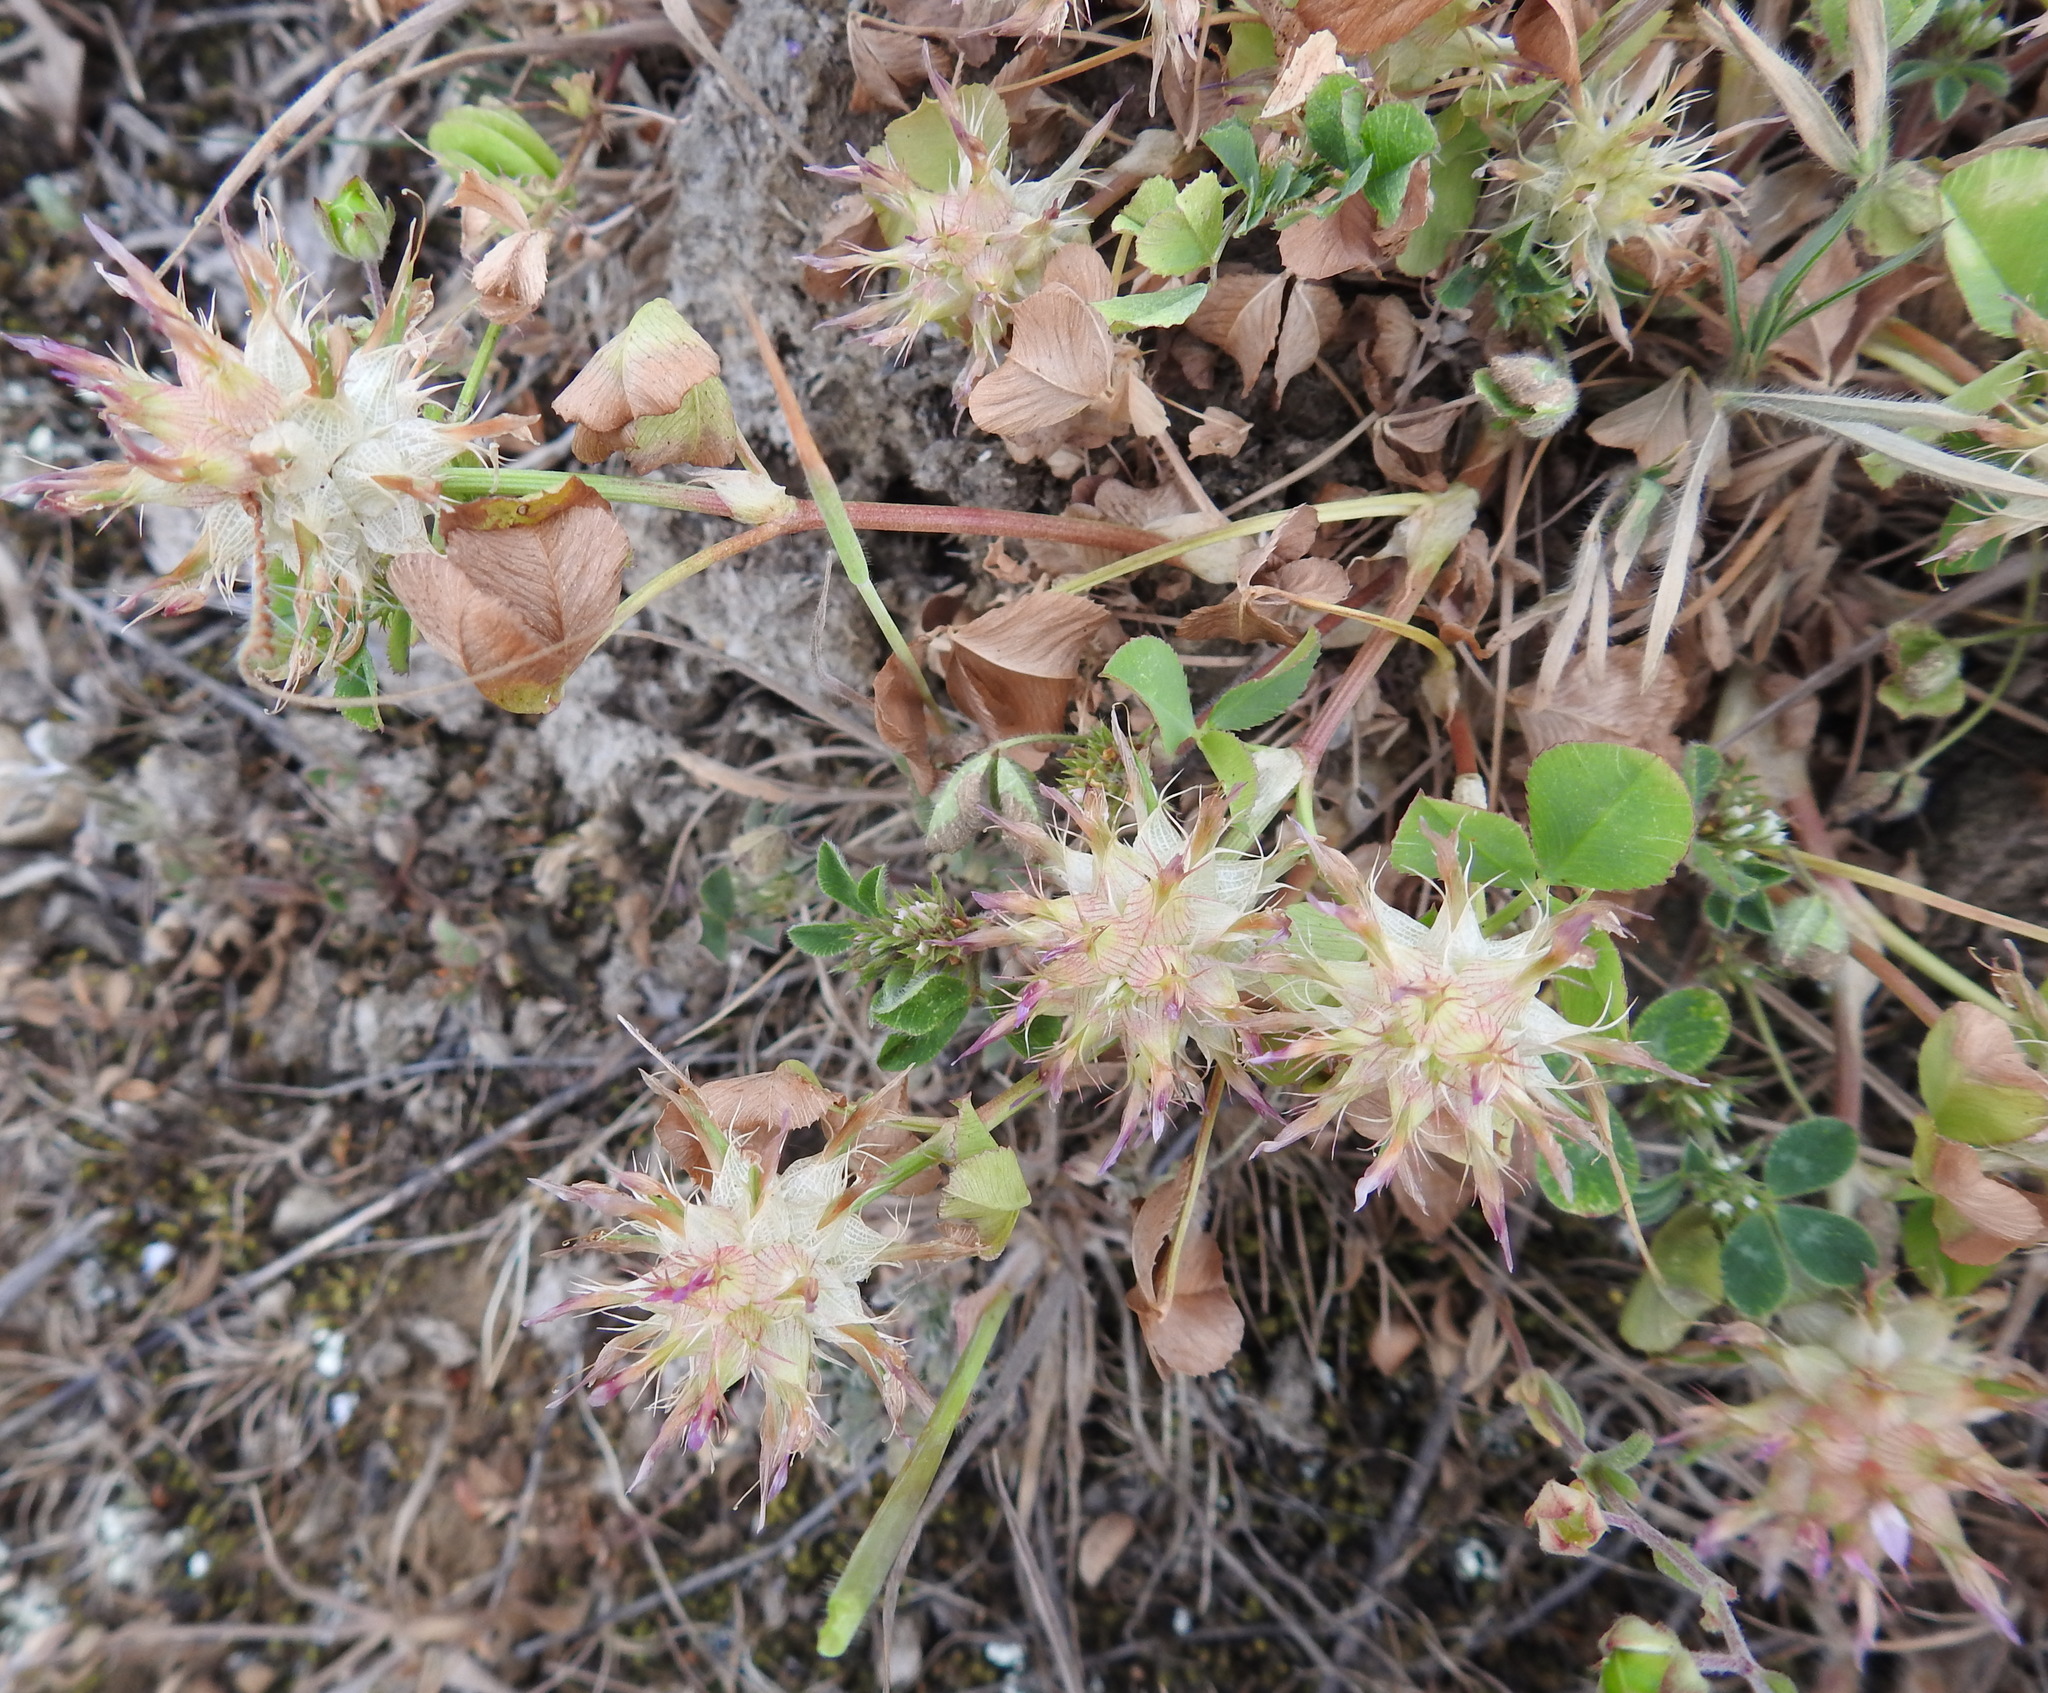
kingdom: Plantae
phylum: Tracheophyta
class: Magnoliopsida
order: Fabales
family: Fabaceae
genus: Trifolium
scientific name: Trifolium spumosum
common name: Mediterranean clover
